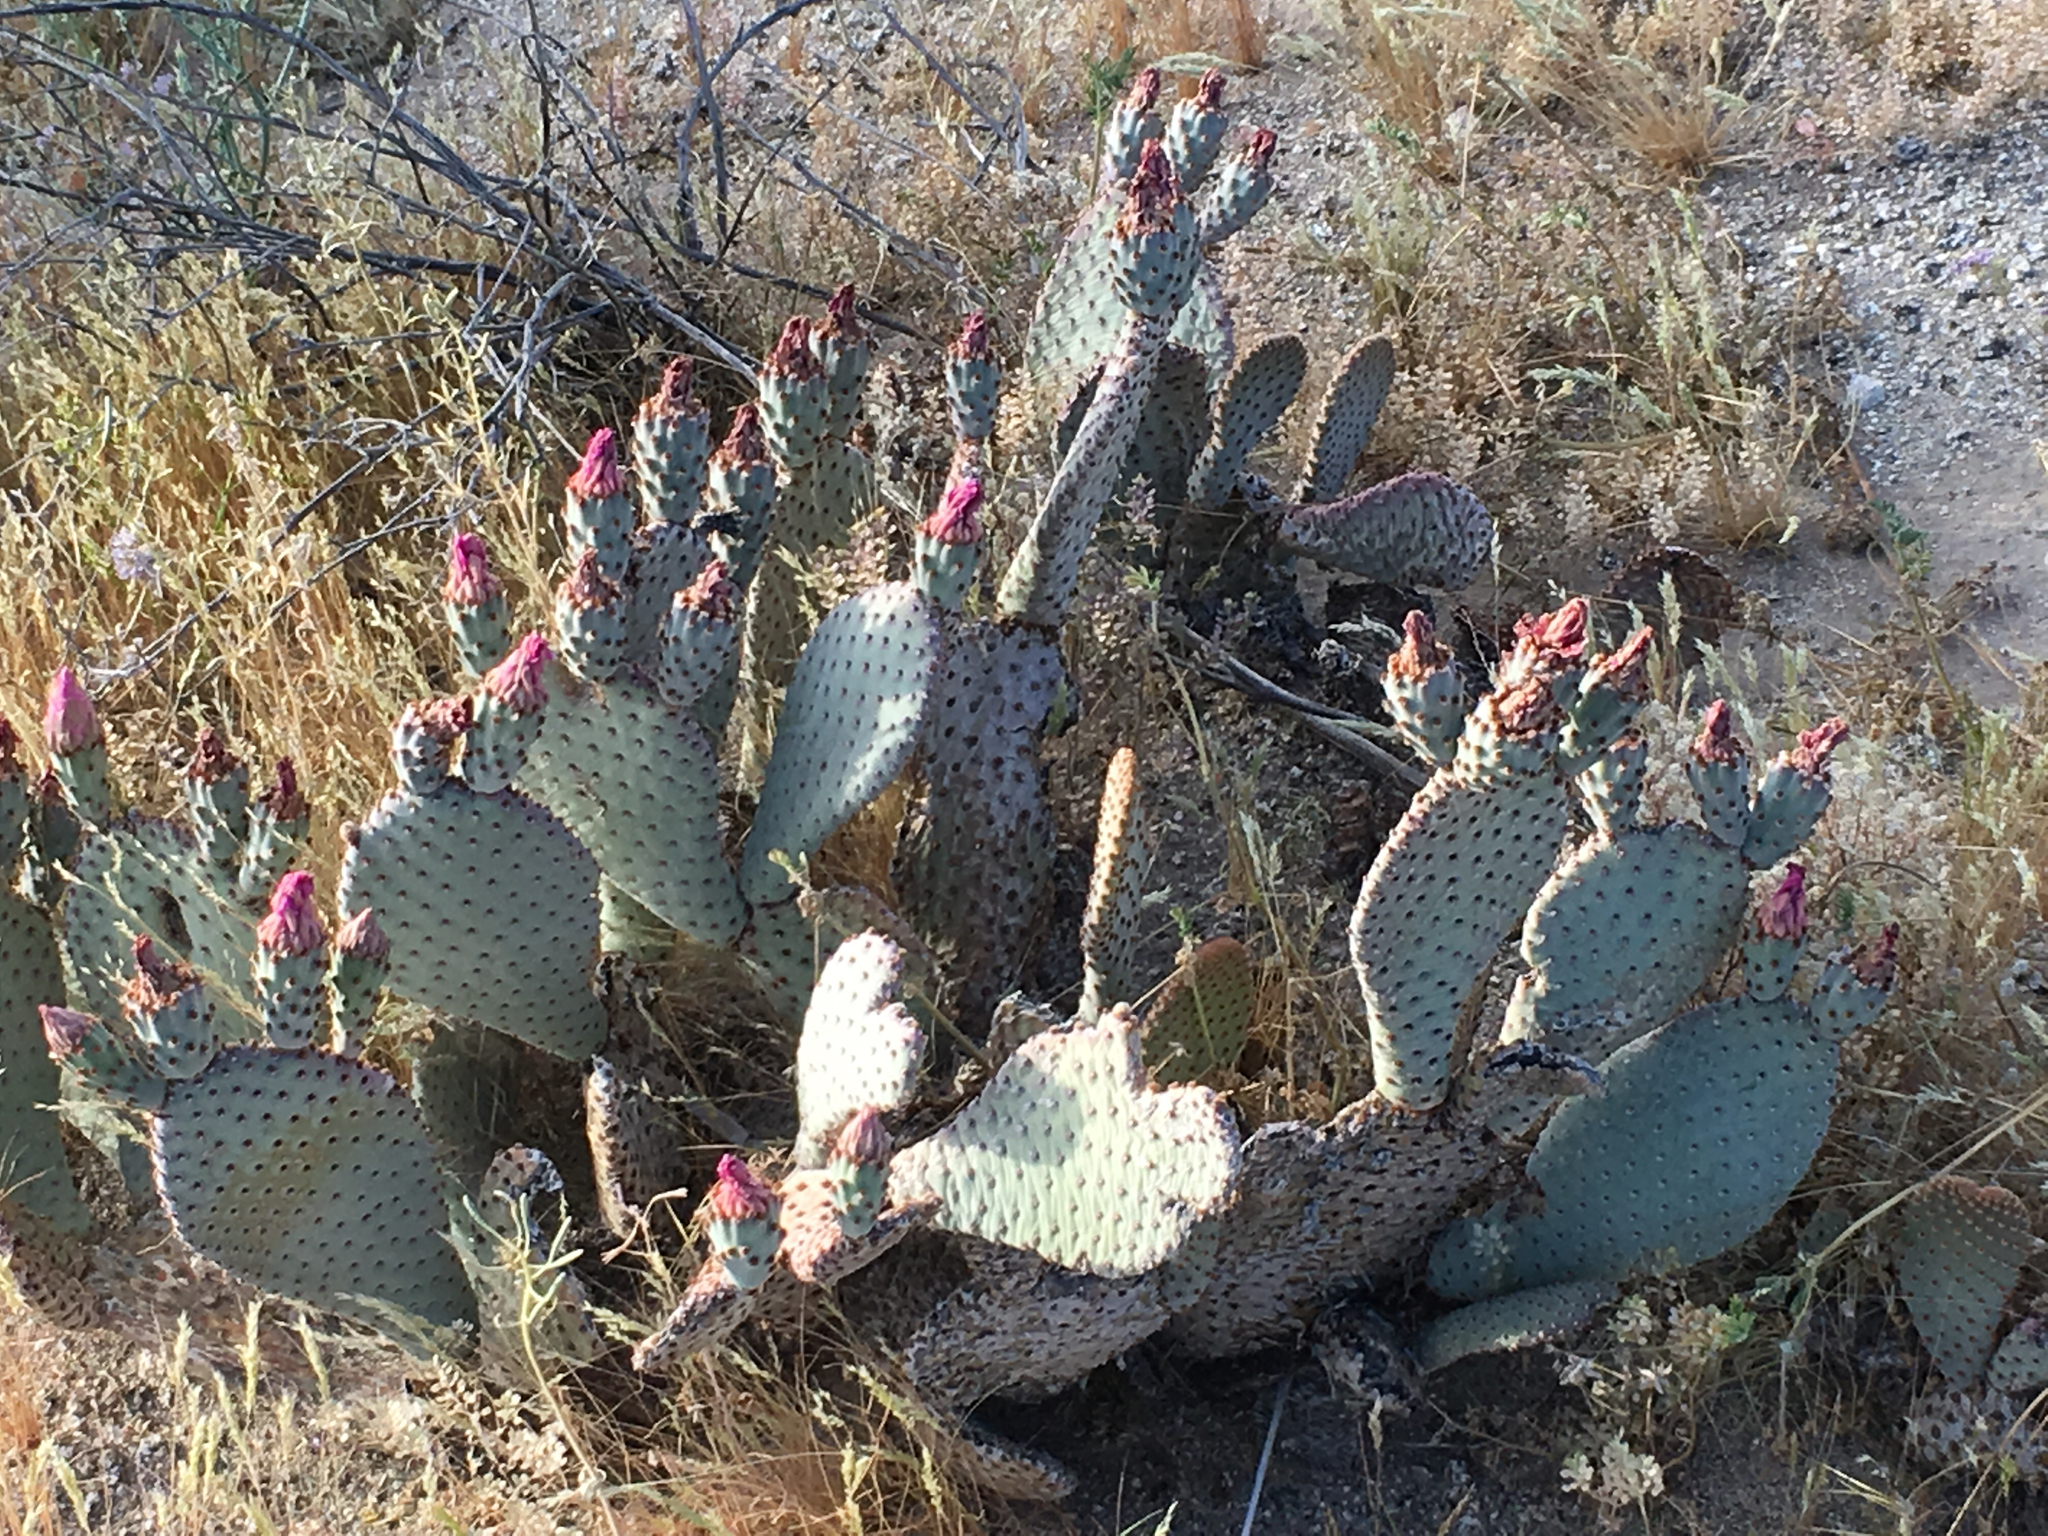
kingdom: Plantae
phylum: Tracheophyta
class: Magnoliopsida
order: Caryophyllales
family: Cactaceae
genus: Opuntia
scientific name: Opuntia basilaris
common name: Beavertail prickly-pear
